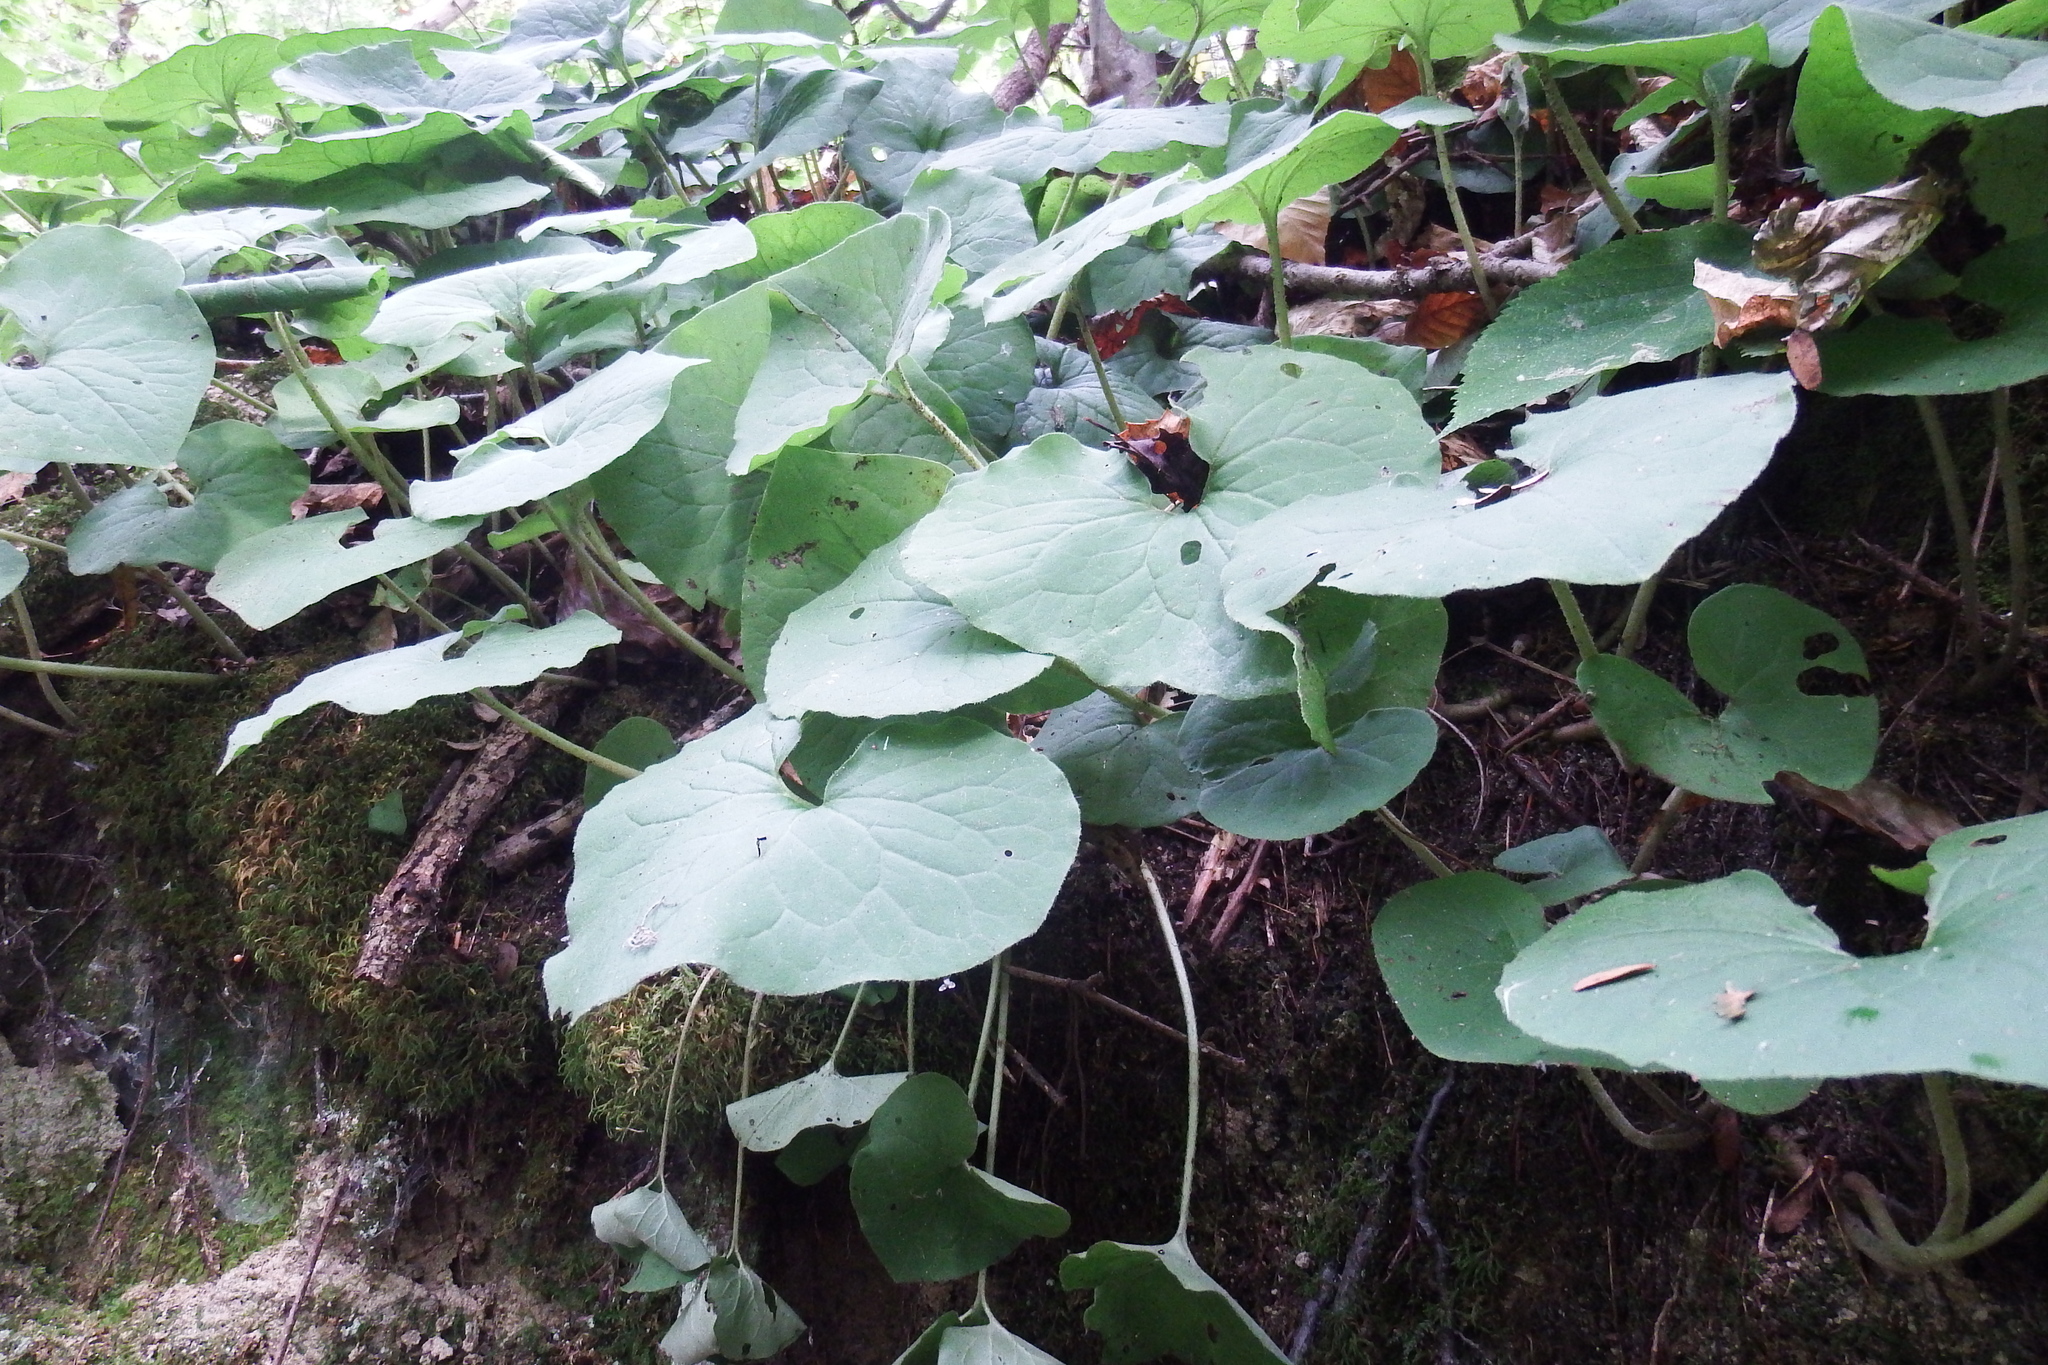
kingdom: Plantae
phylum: Tracheophyta
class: Magnoliopsida
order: Piperales
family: Aristolochiaceae
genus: Asarum
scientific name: Asarum canadense
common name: Wild ginger
